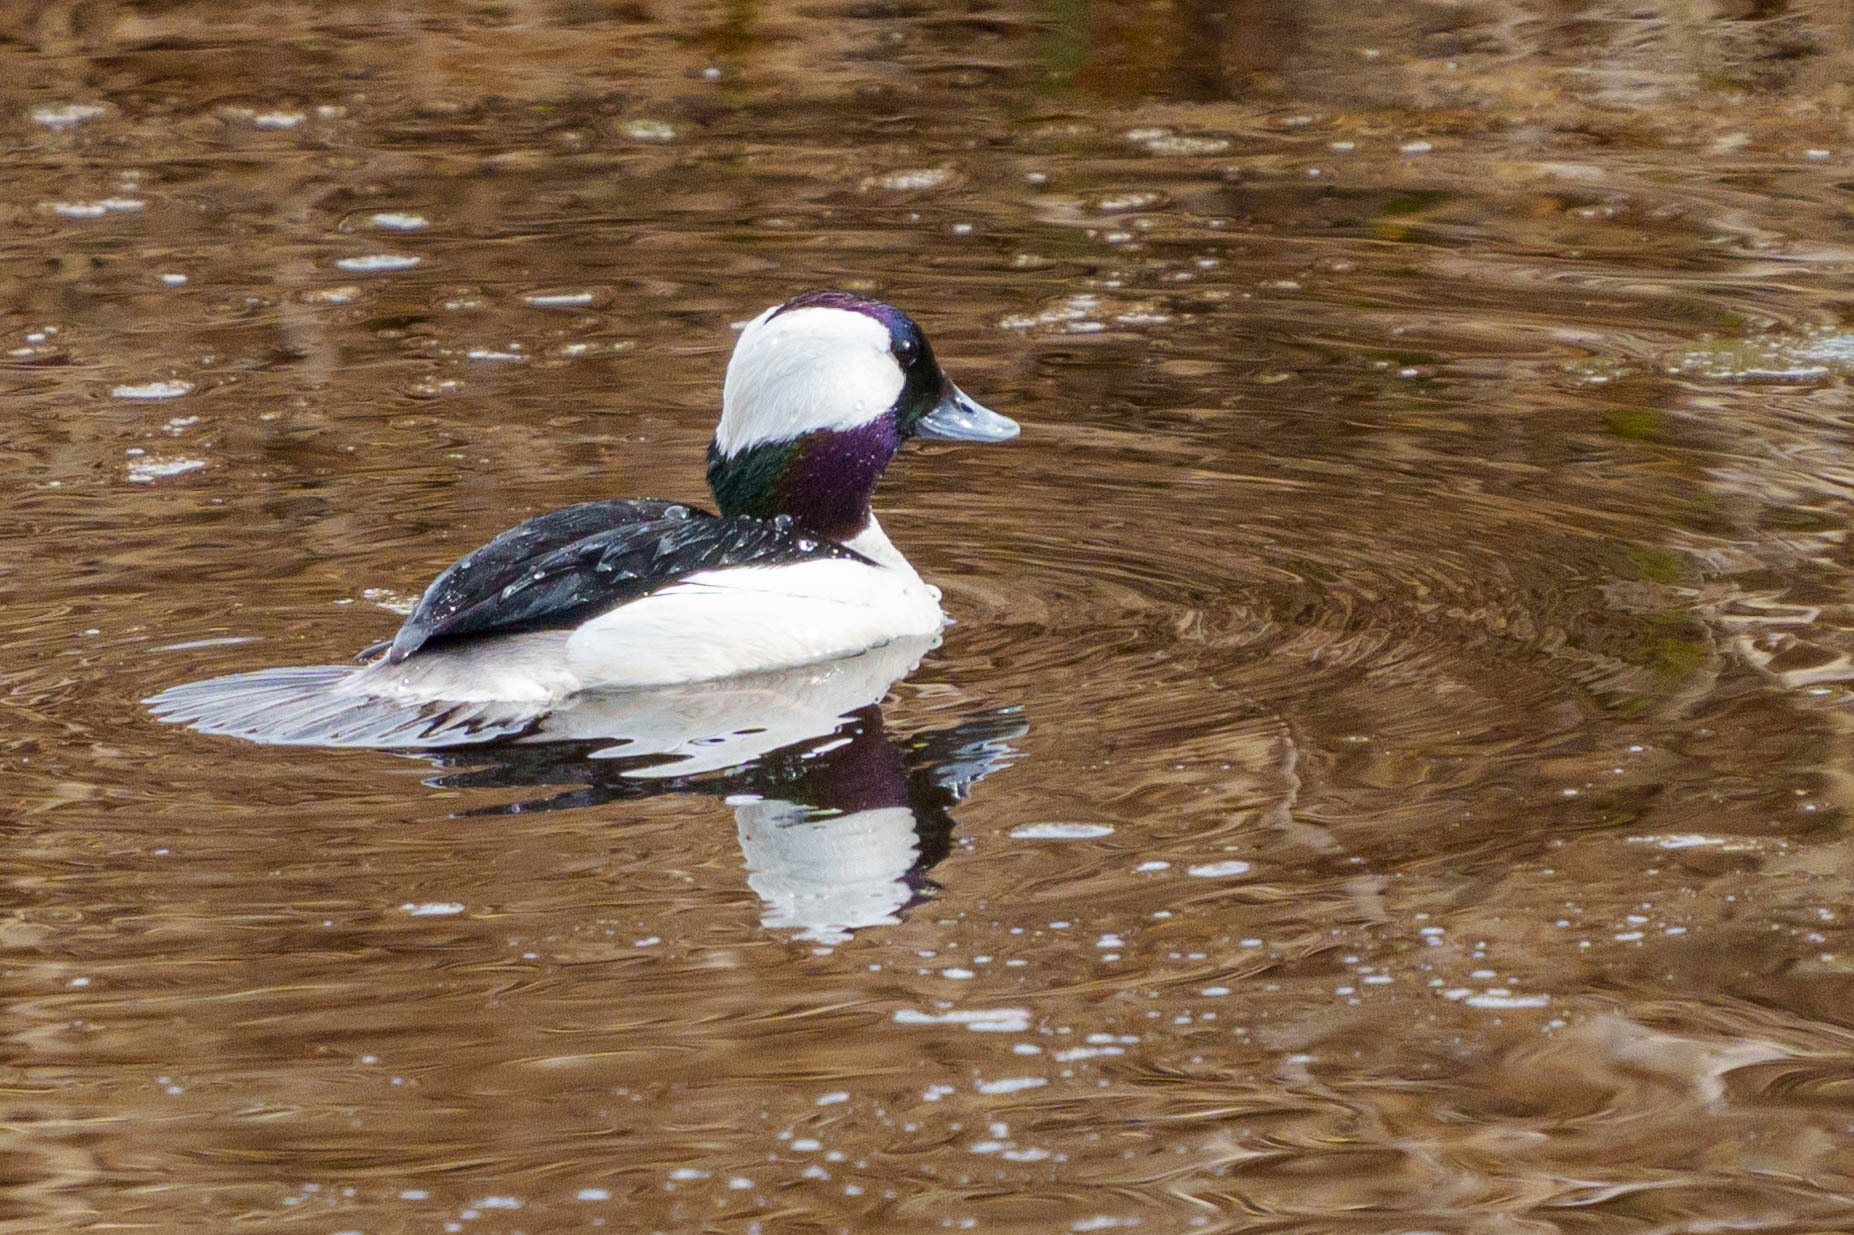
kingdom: Animalia
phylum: Chordata
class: Aves
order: Anseriformes
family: Anatidae
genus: Bucephala
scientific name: Bucephala albeola
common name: Bufflehead
